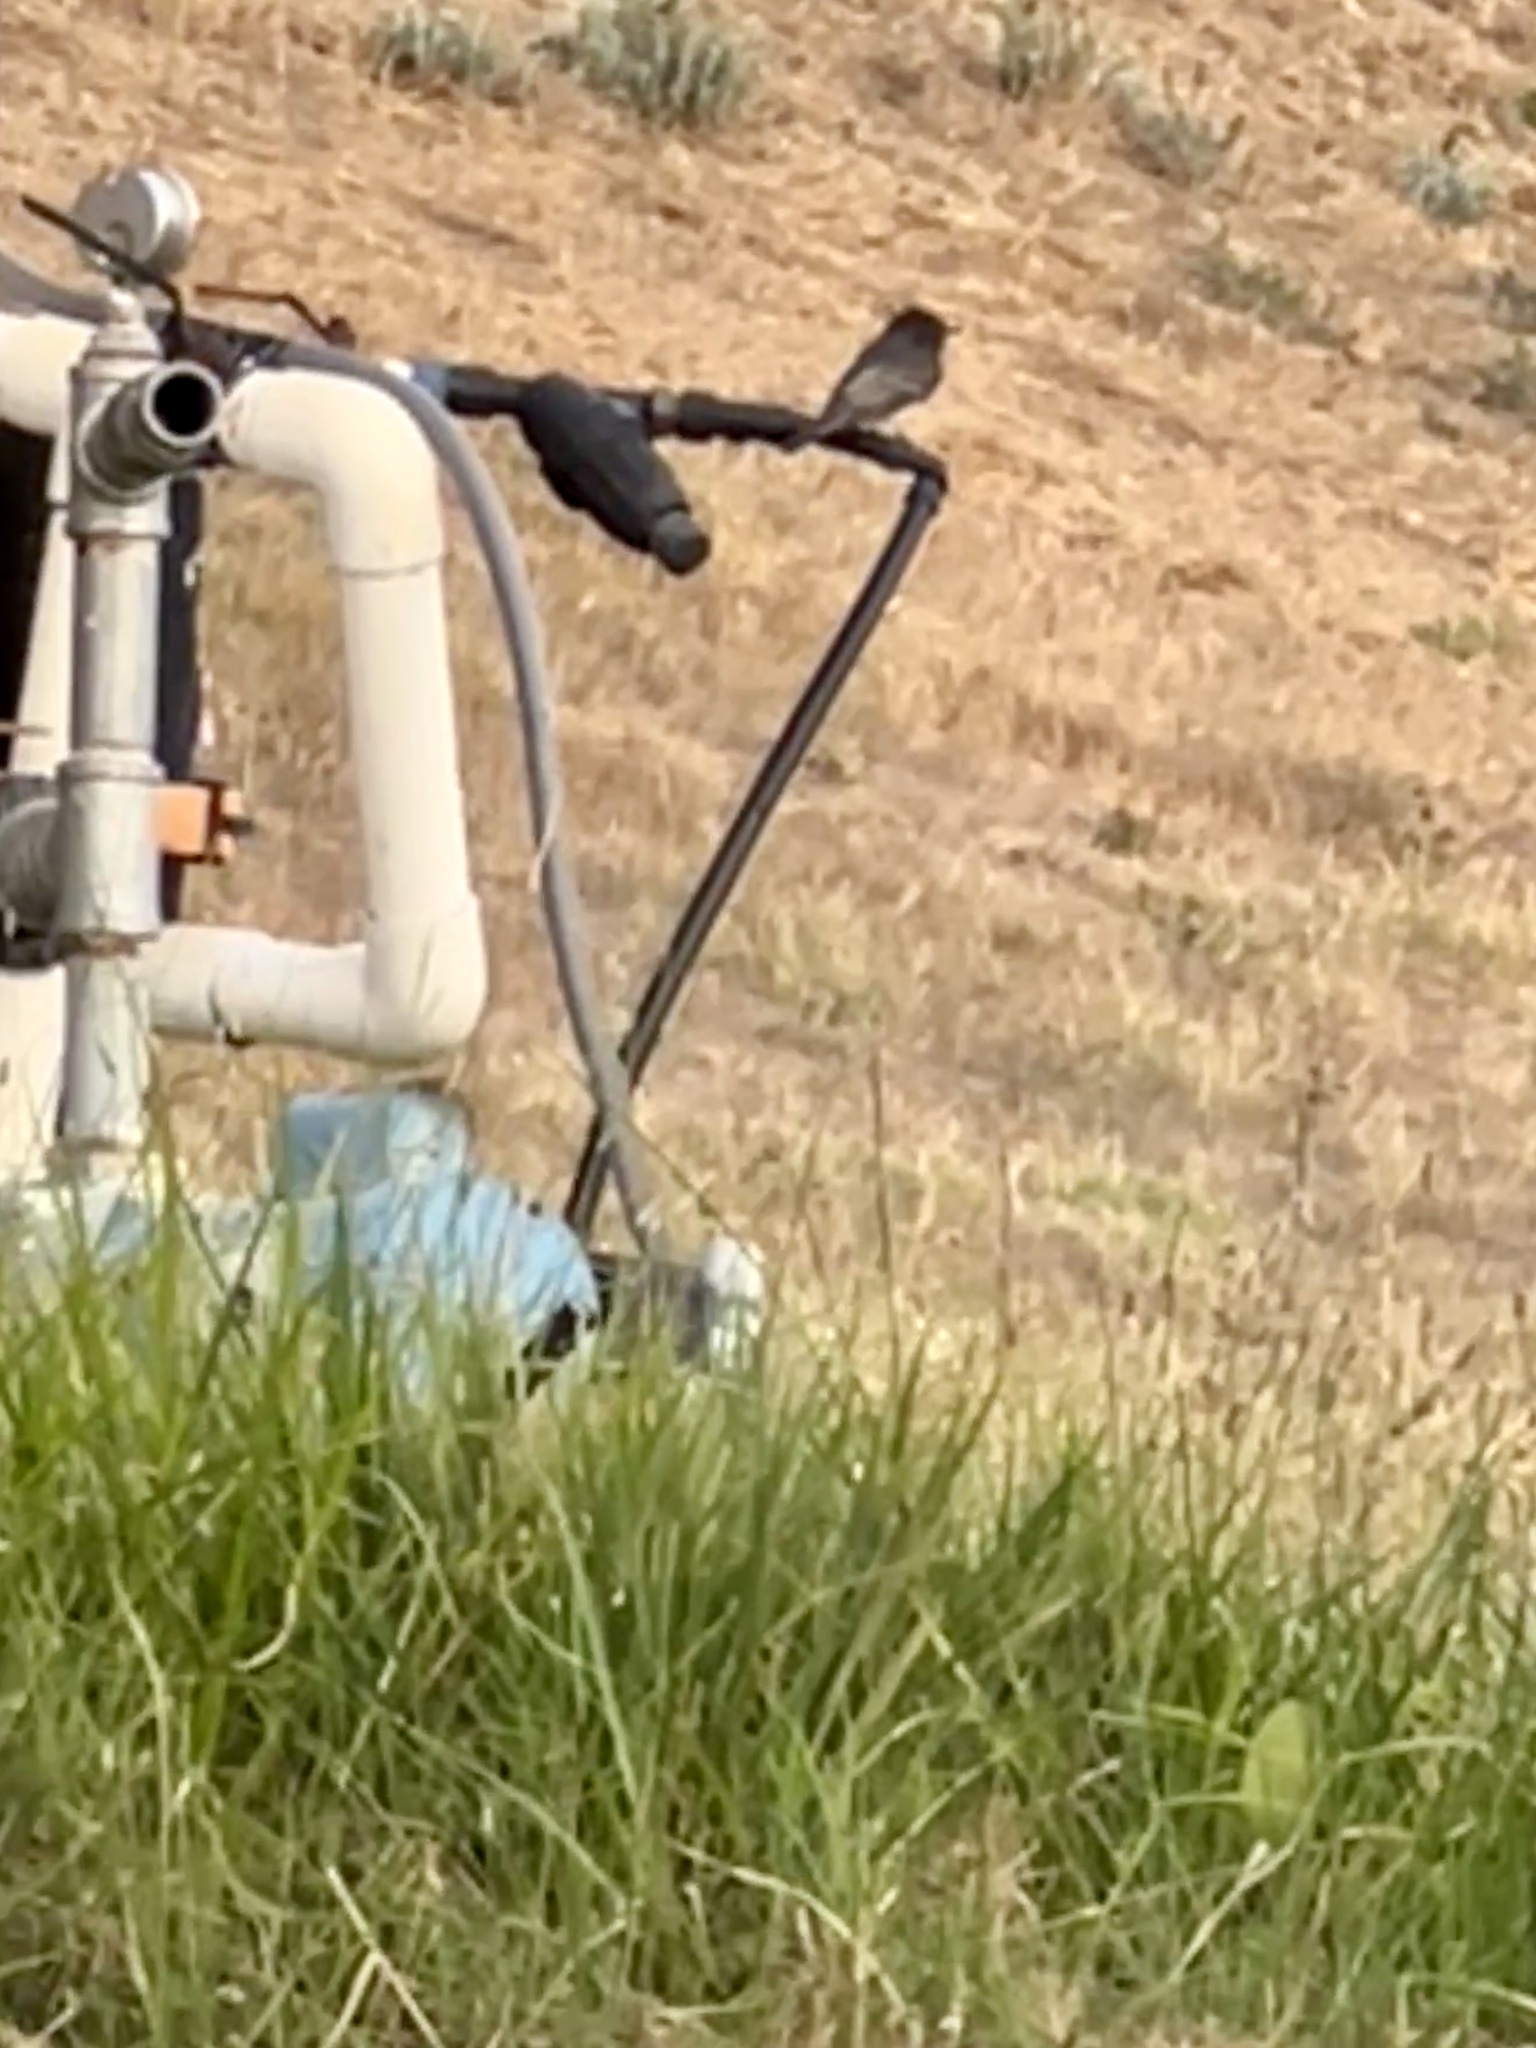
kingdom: Animalia
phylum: Chordata
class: Aves
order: Passeriformes
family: Tyrannidae
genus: Sayornis
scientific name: Sayornis nigricans
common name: Black phoebe
